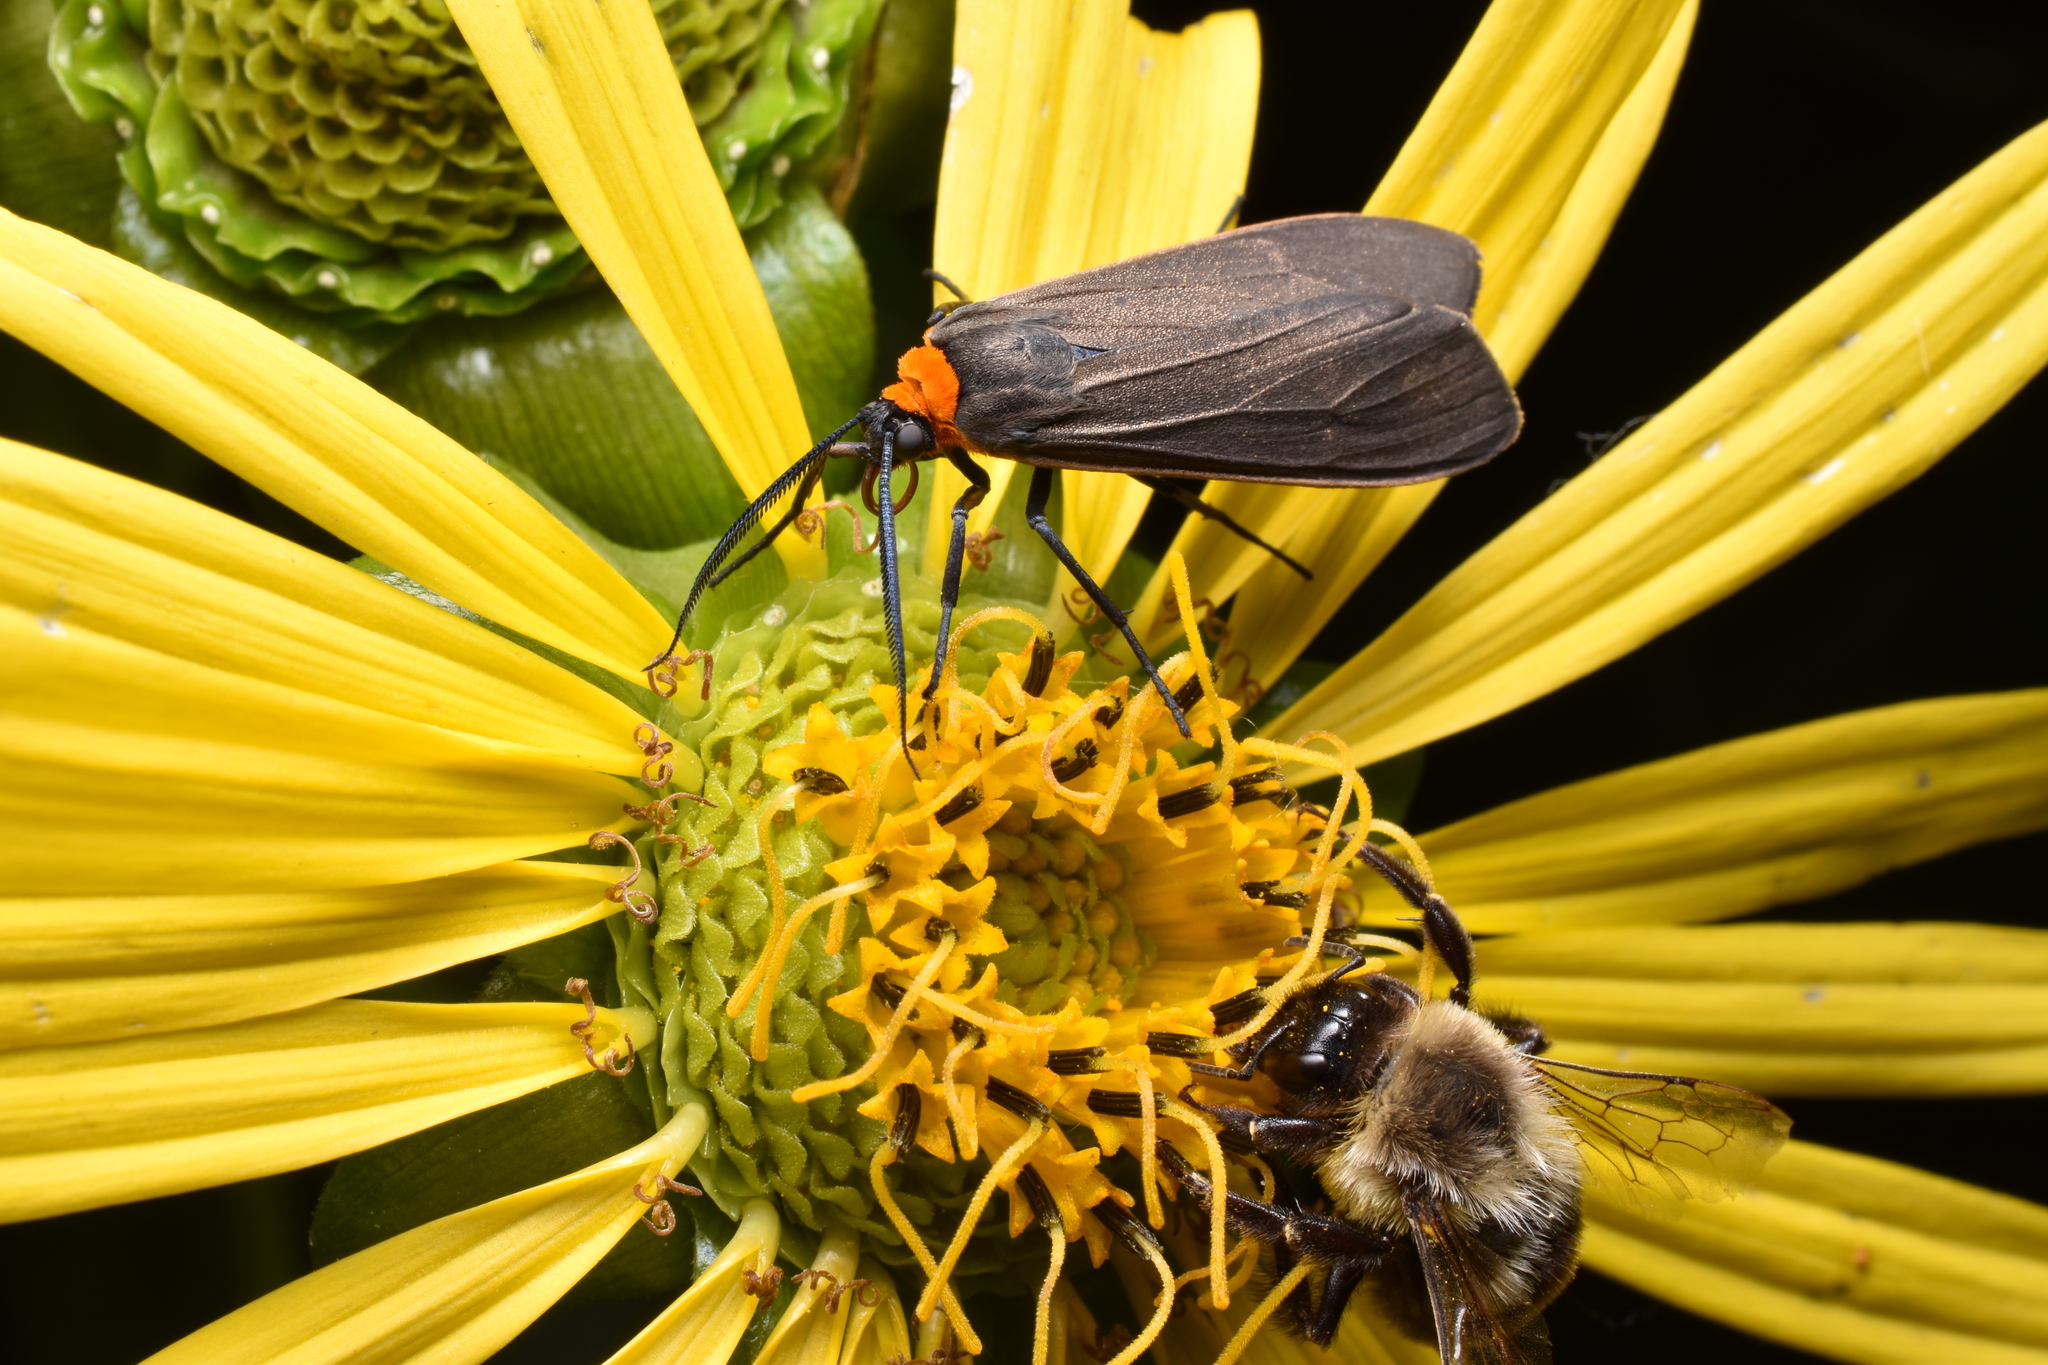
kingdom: Animalia
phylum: Arthropoda
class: Insecta
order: Lepidoptera
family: Erebidae
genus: Cisseps
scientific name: Cisseps fulvicollis
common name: Yellow-collared scape moth
